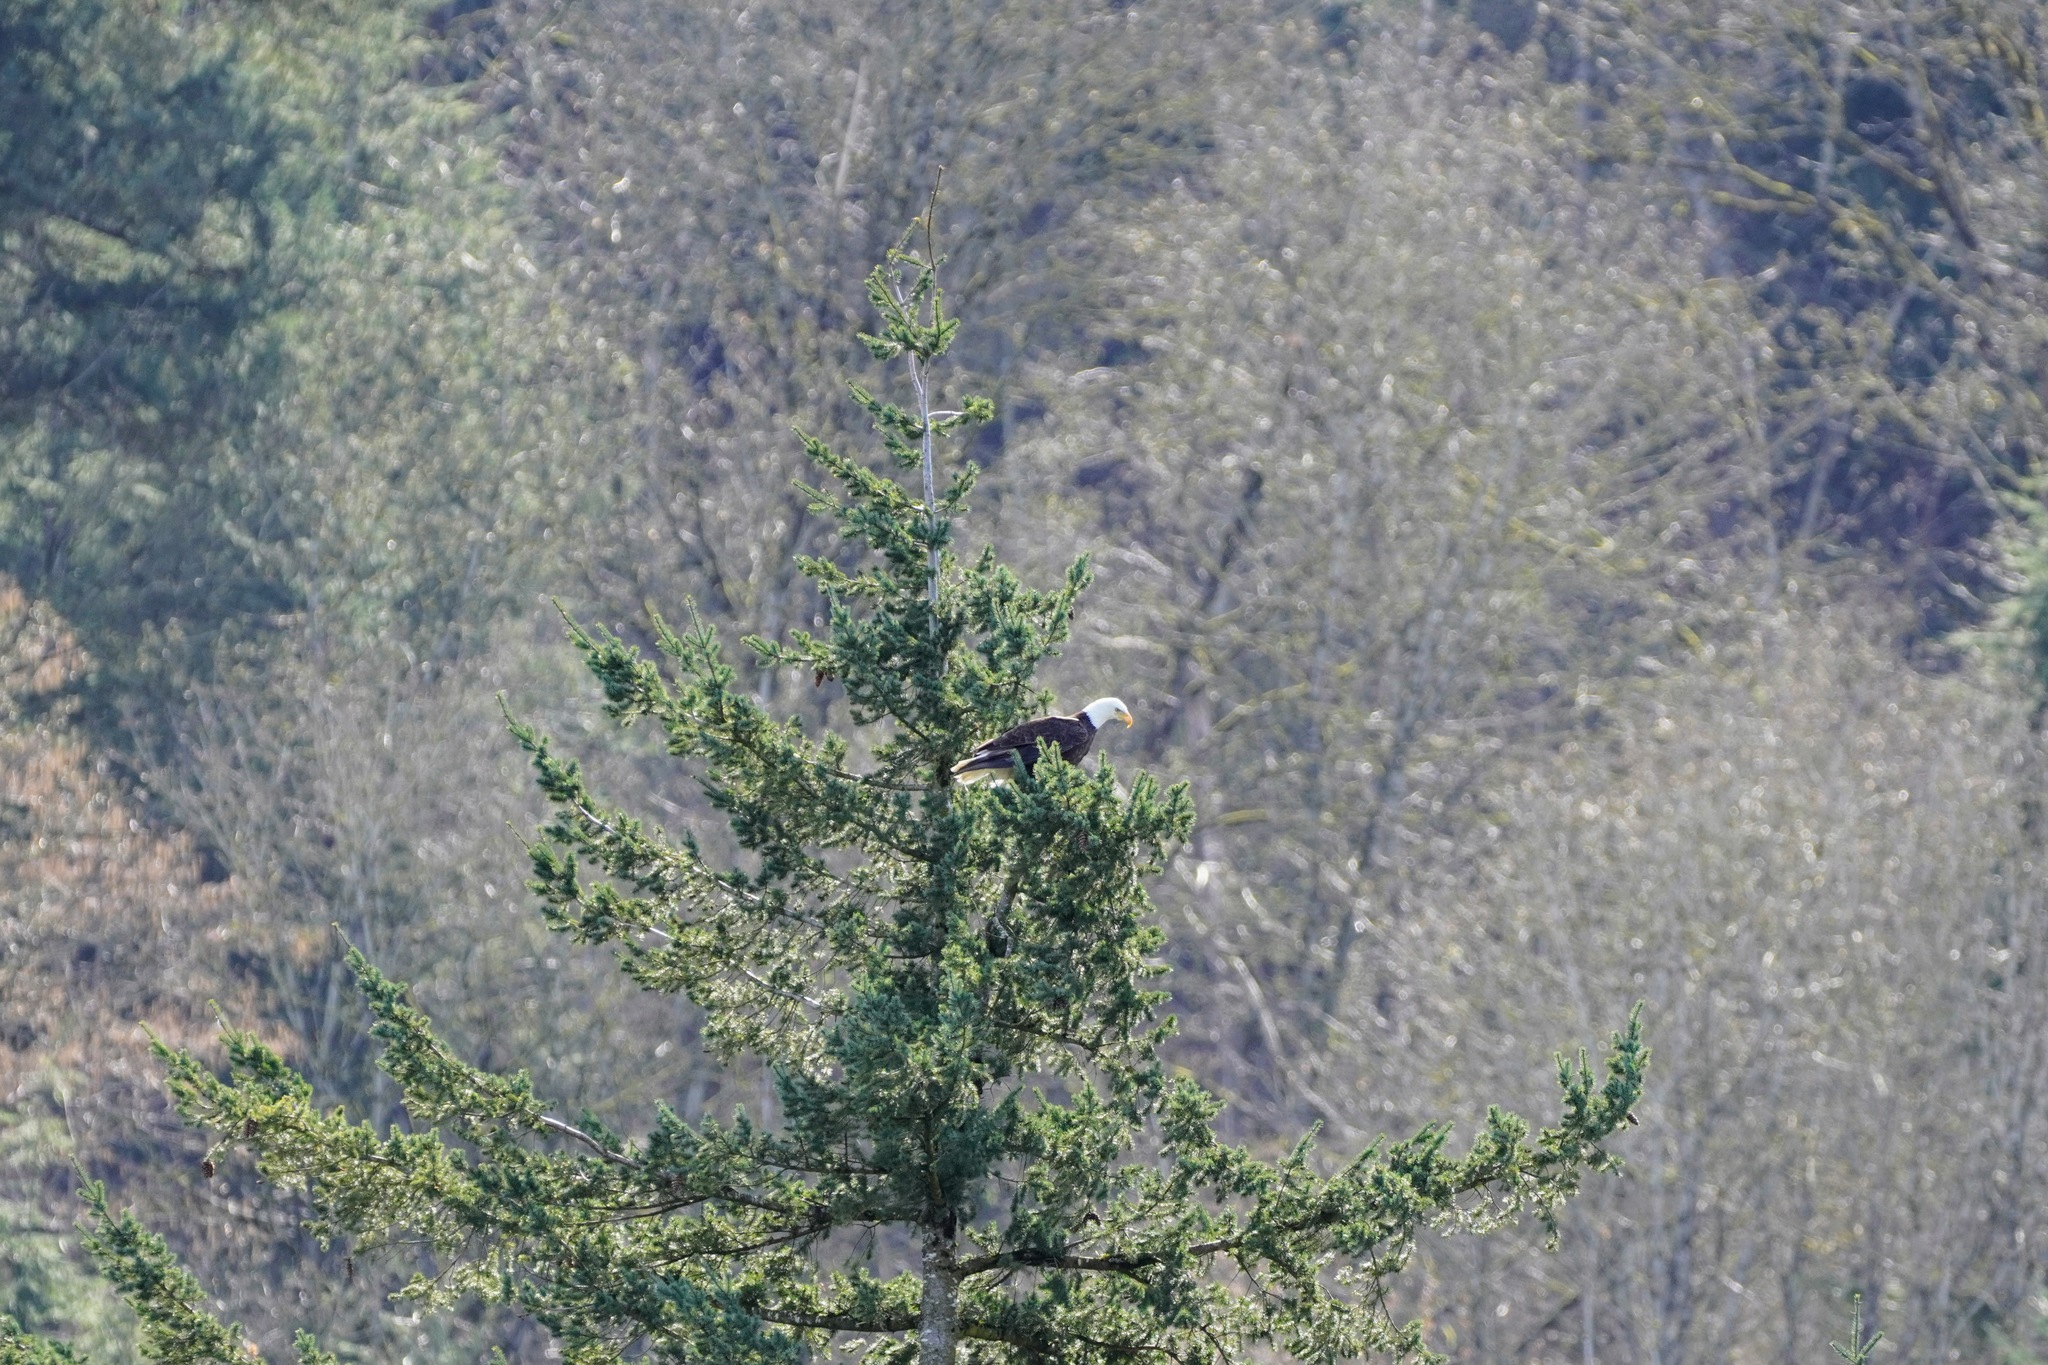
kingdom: Animalia
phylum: Chordata
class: Aves
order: Accipitriformes
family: Accipitridae
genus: Haliaeetus
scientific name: Haliaeetus leucocephalus
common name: Bald eagle
